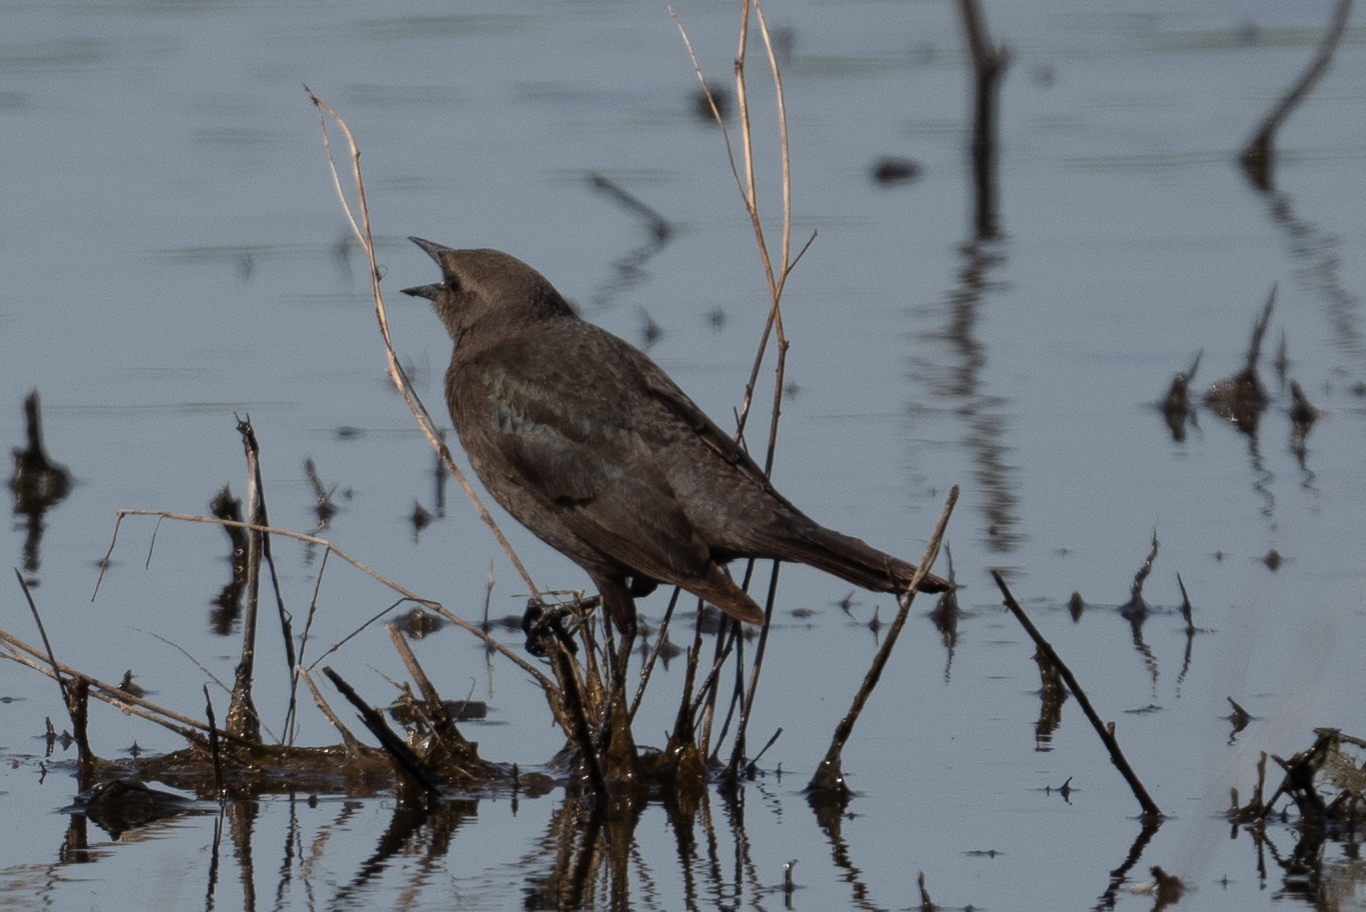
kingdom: Animalia
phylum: Chordata
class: Aves
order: Passeriformes
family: Icteridae
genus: Euphagus
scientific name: Euphagus cyanocephalus
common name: Brewer's blackbird
